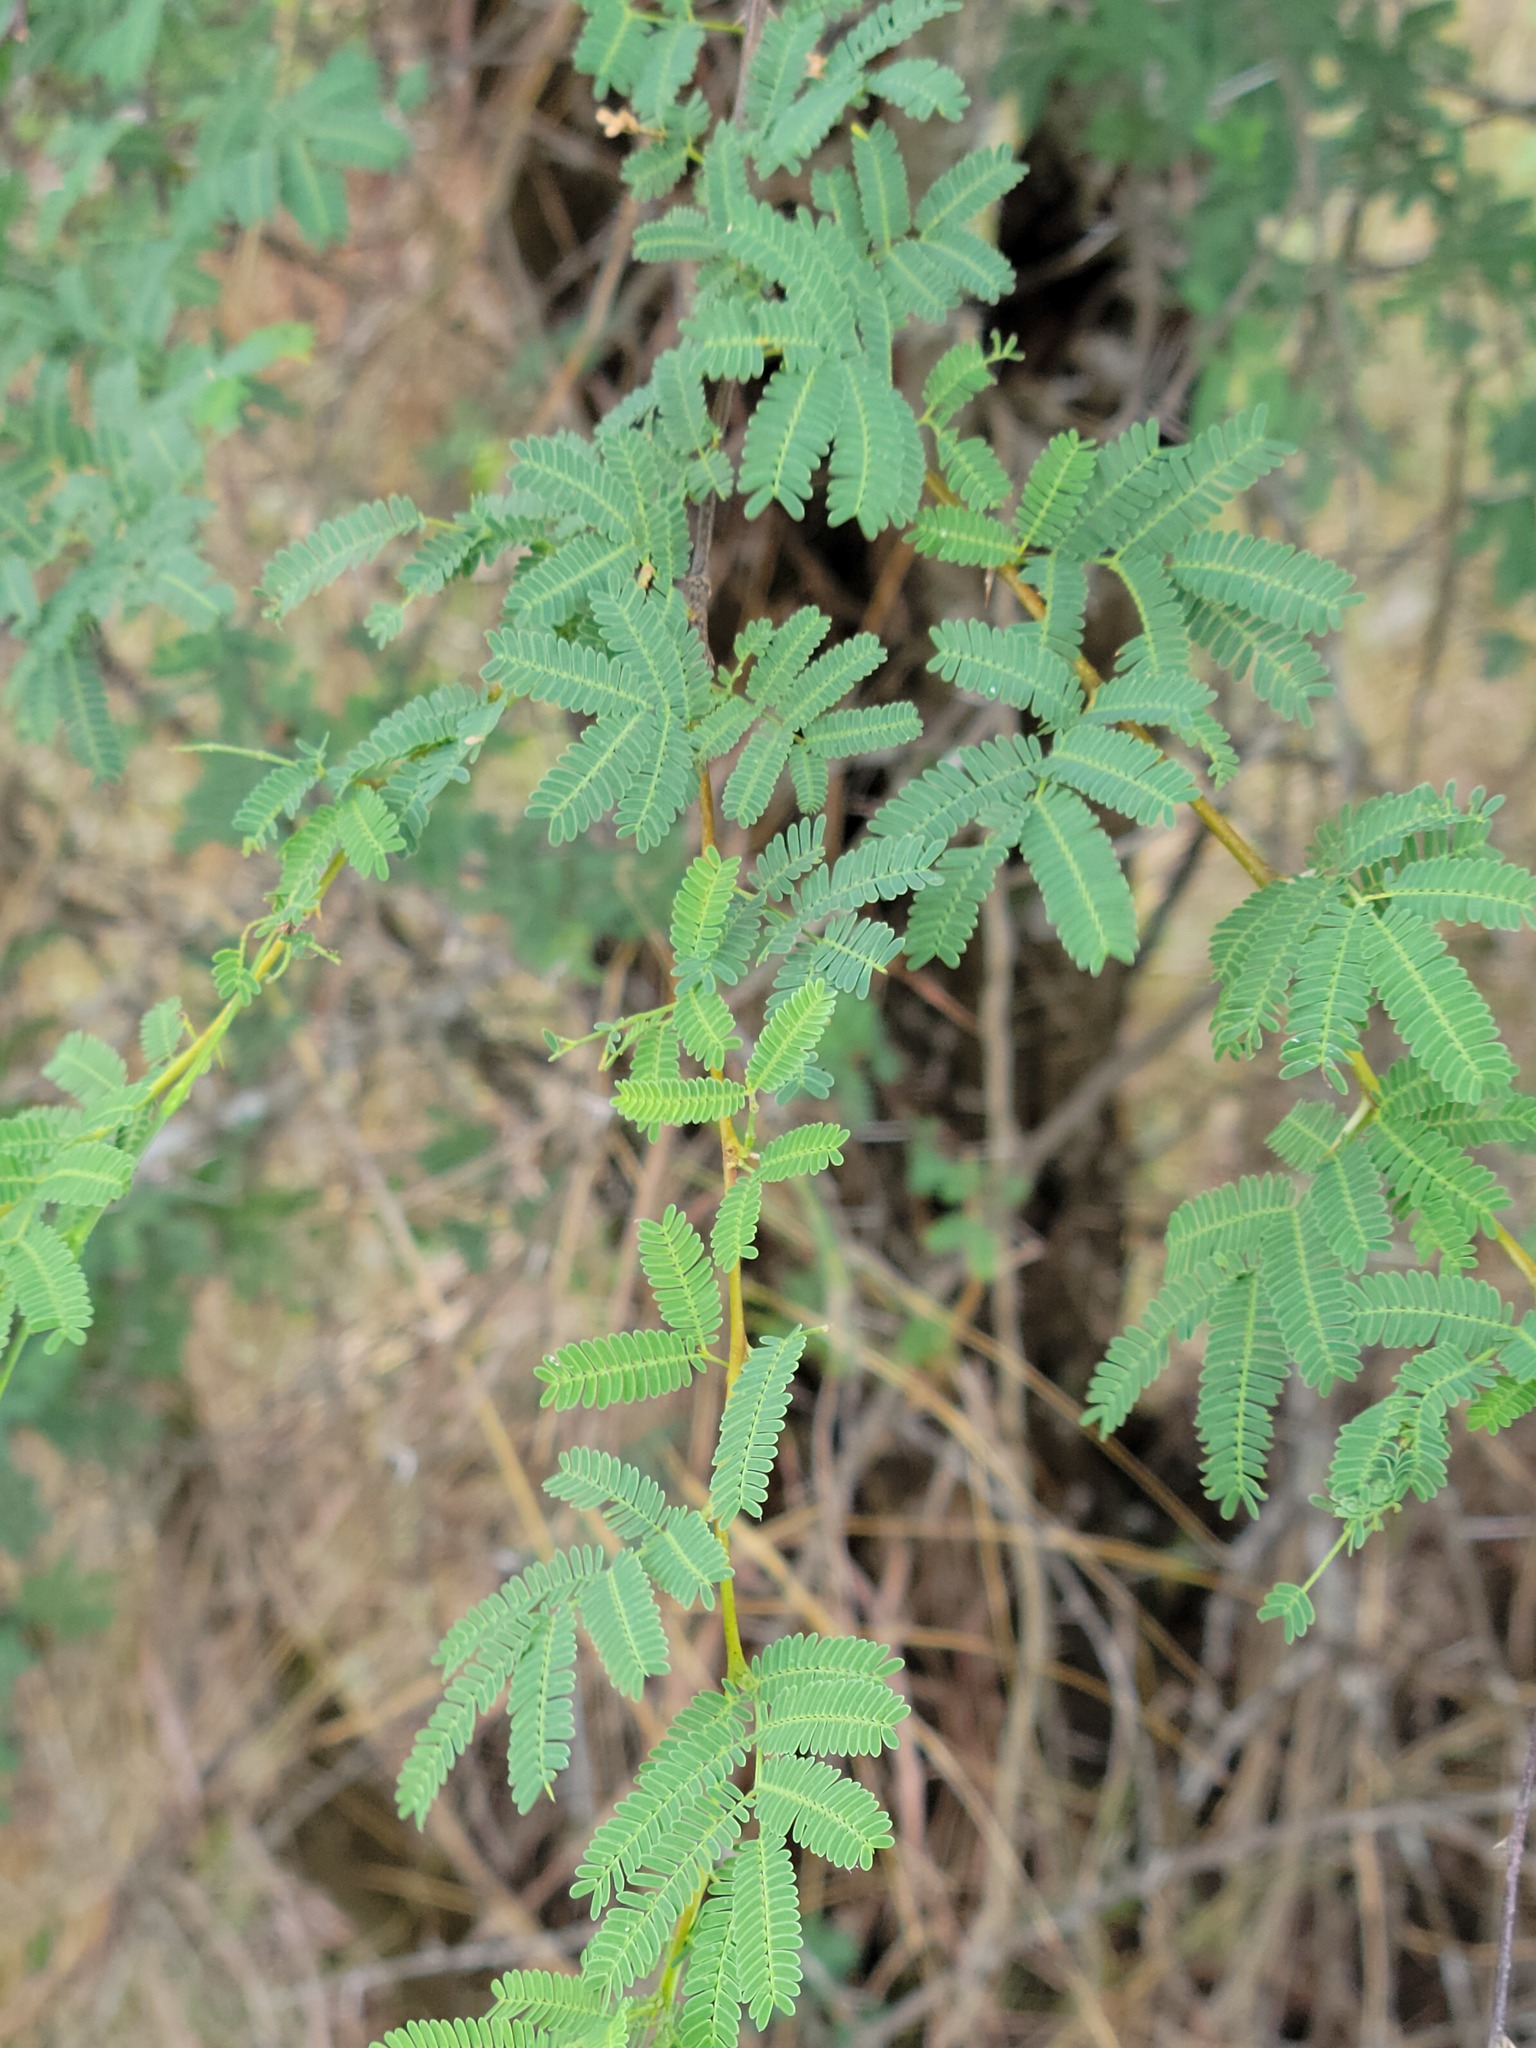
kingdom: Plantae
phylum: Tracheophyta
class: Magnoliopsida
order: Fabales
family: Fabaceae
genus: Vachellia
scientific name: Vachellia farnesiana
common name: Sweet acacia
